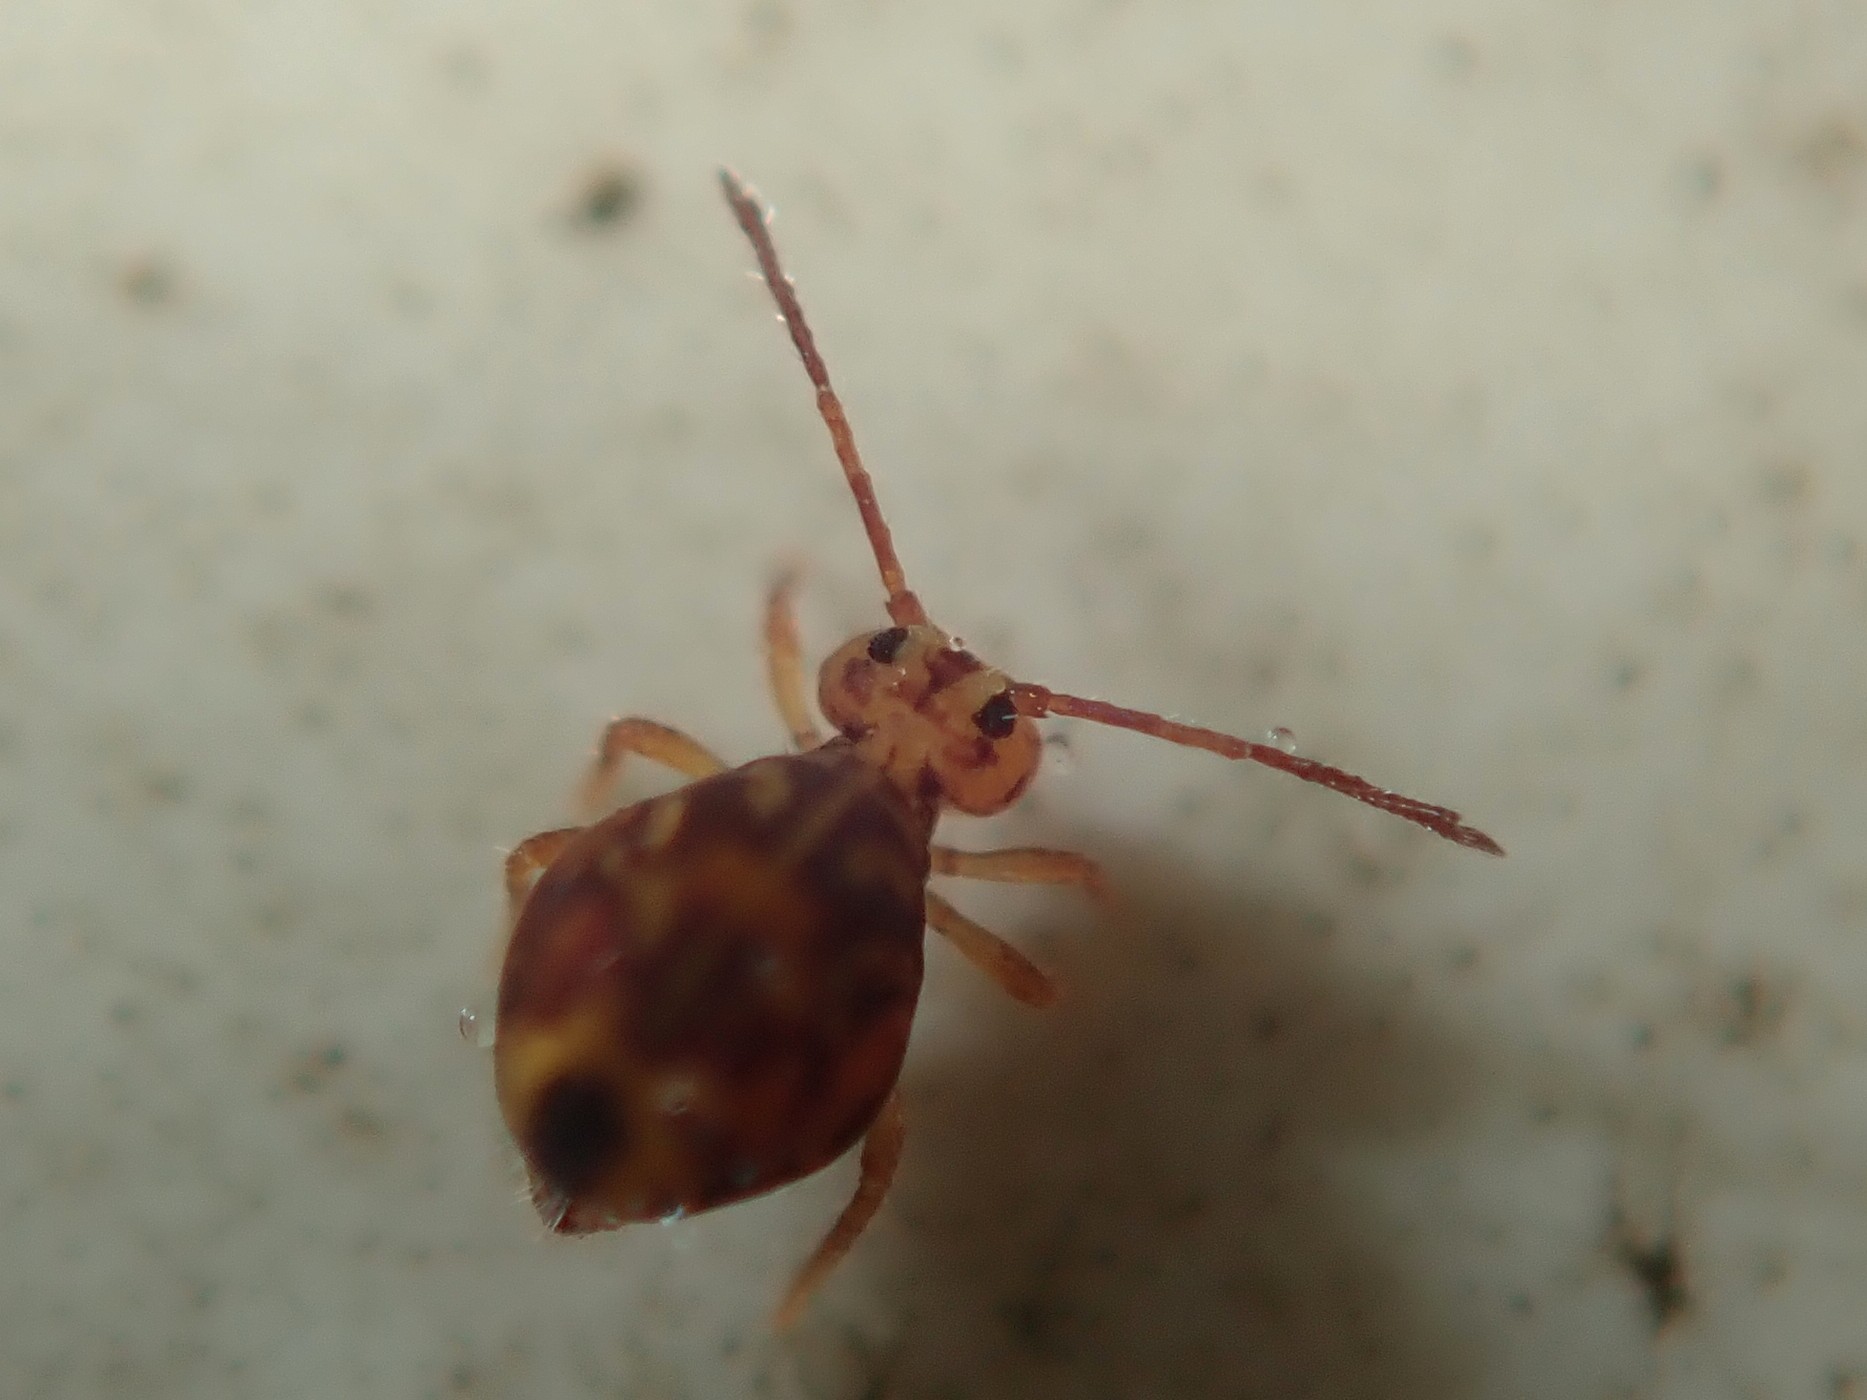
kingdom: Animalia
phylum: Arthropoda
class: Collembola
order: Symphypleona
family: Dicyrtomidae
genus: Dicyrtomina
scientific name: Dicyrtomina ornata
